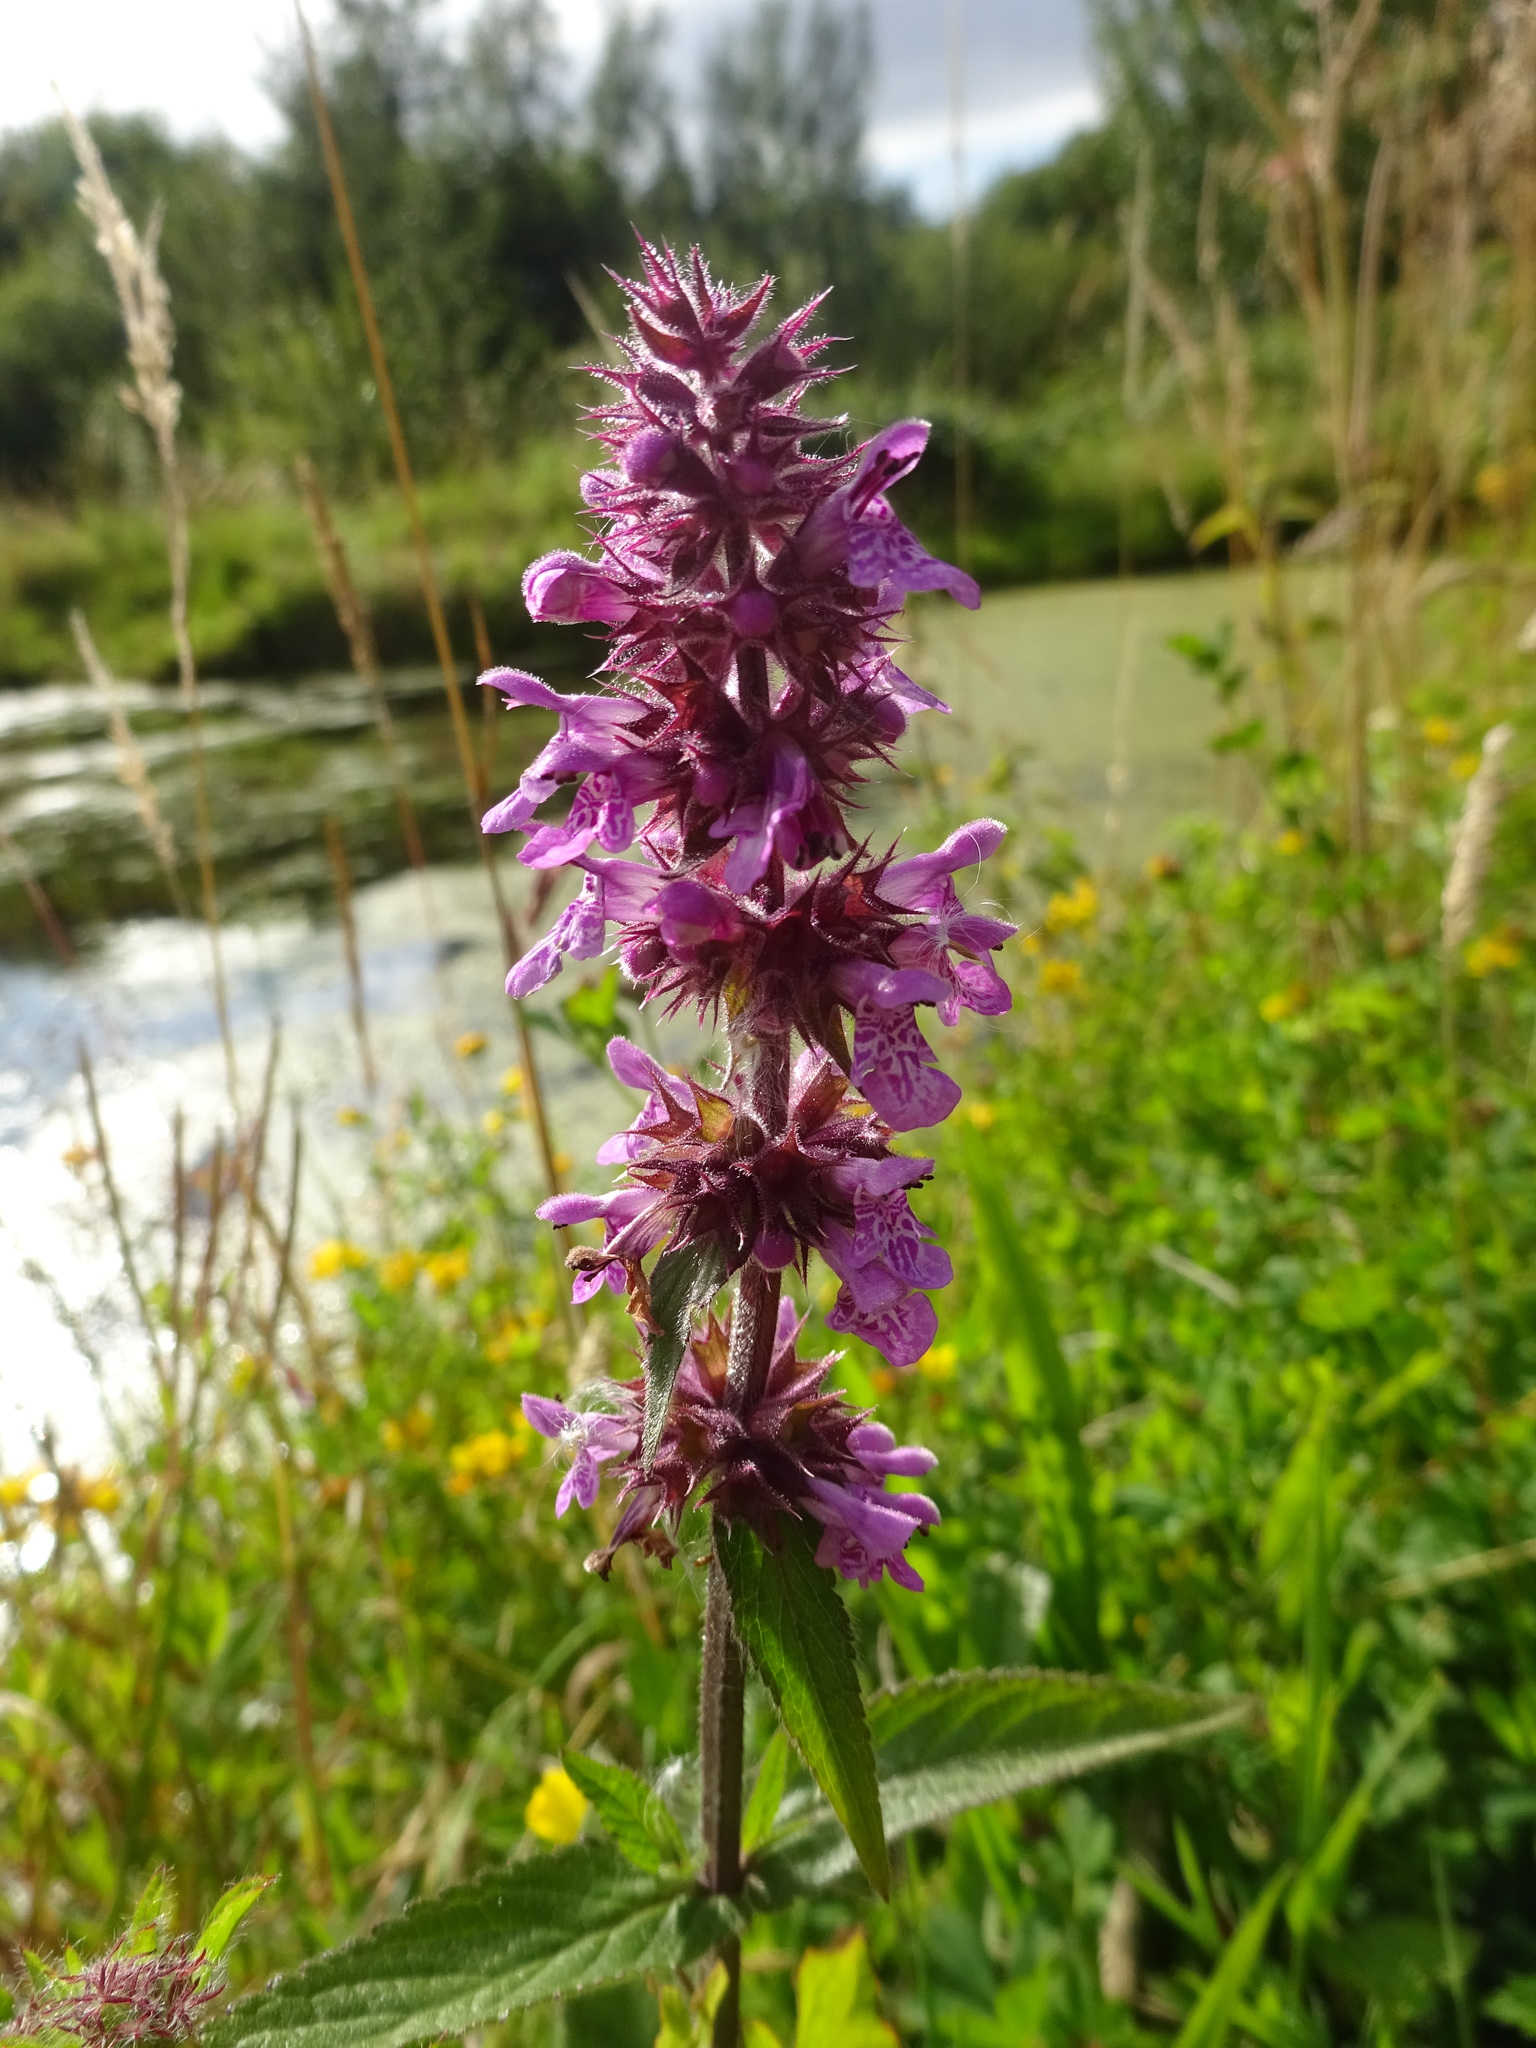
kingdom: Plantae
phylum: Tracheophyta
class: Magnoliopsida
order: Lamiales
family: Lamiaceae
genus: Stachys
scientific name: Stachys palustris
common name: Marsh woundwort
